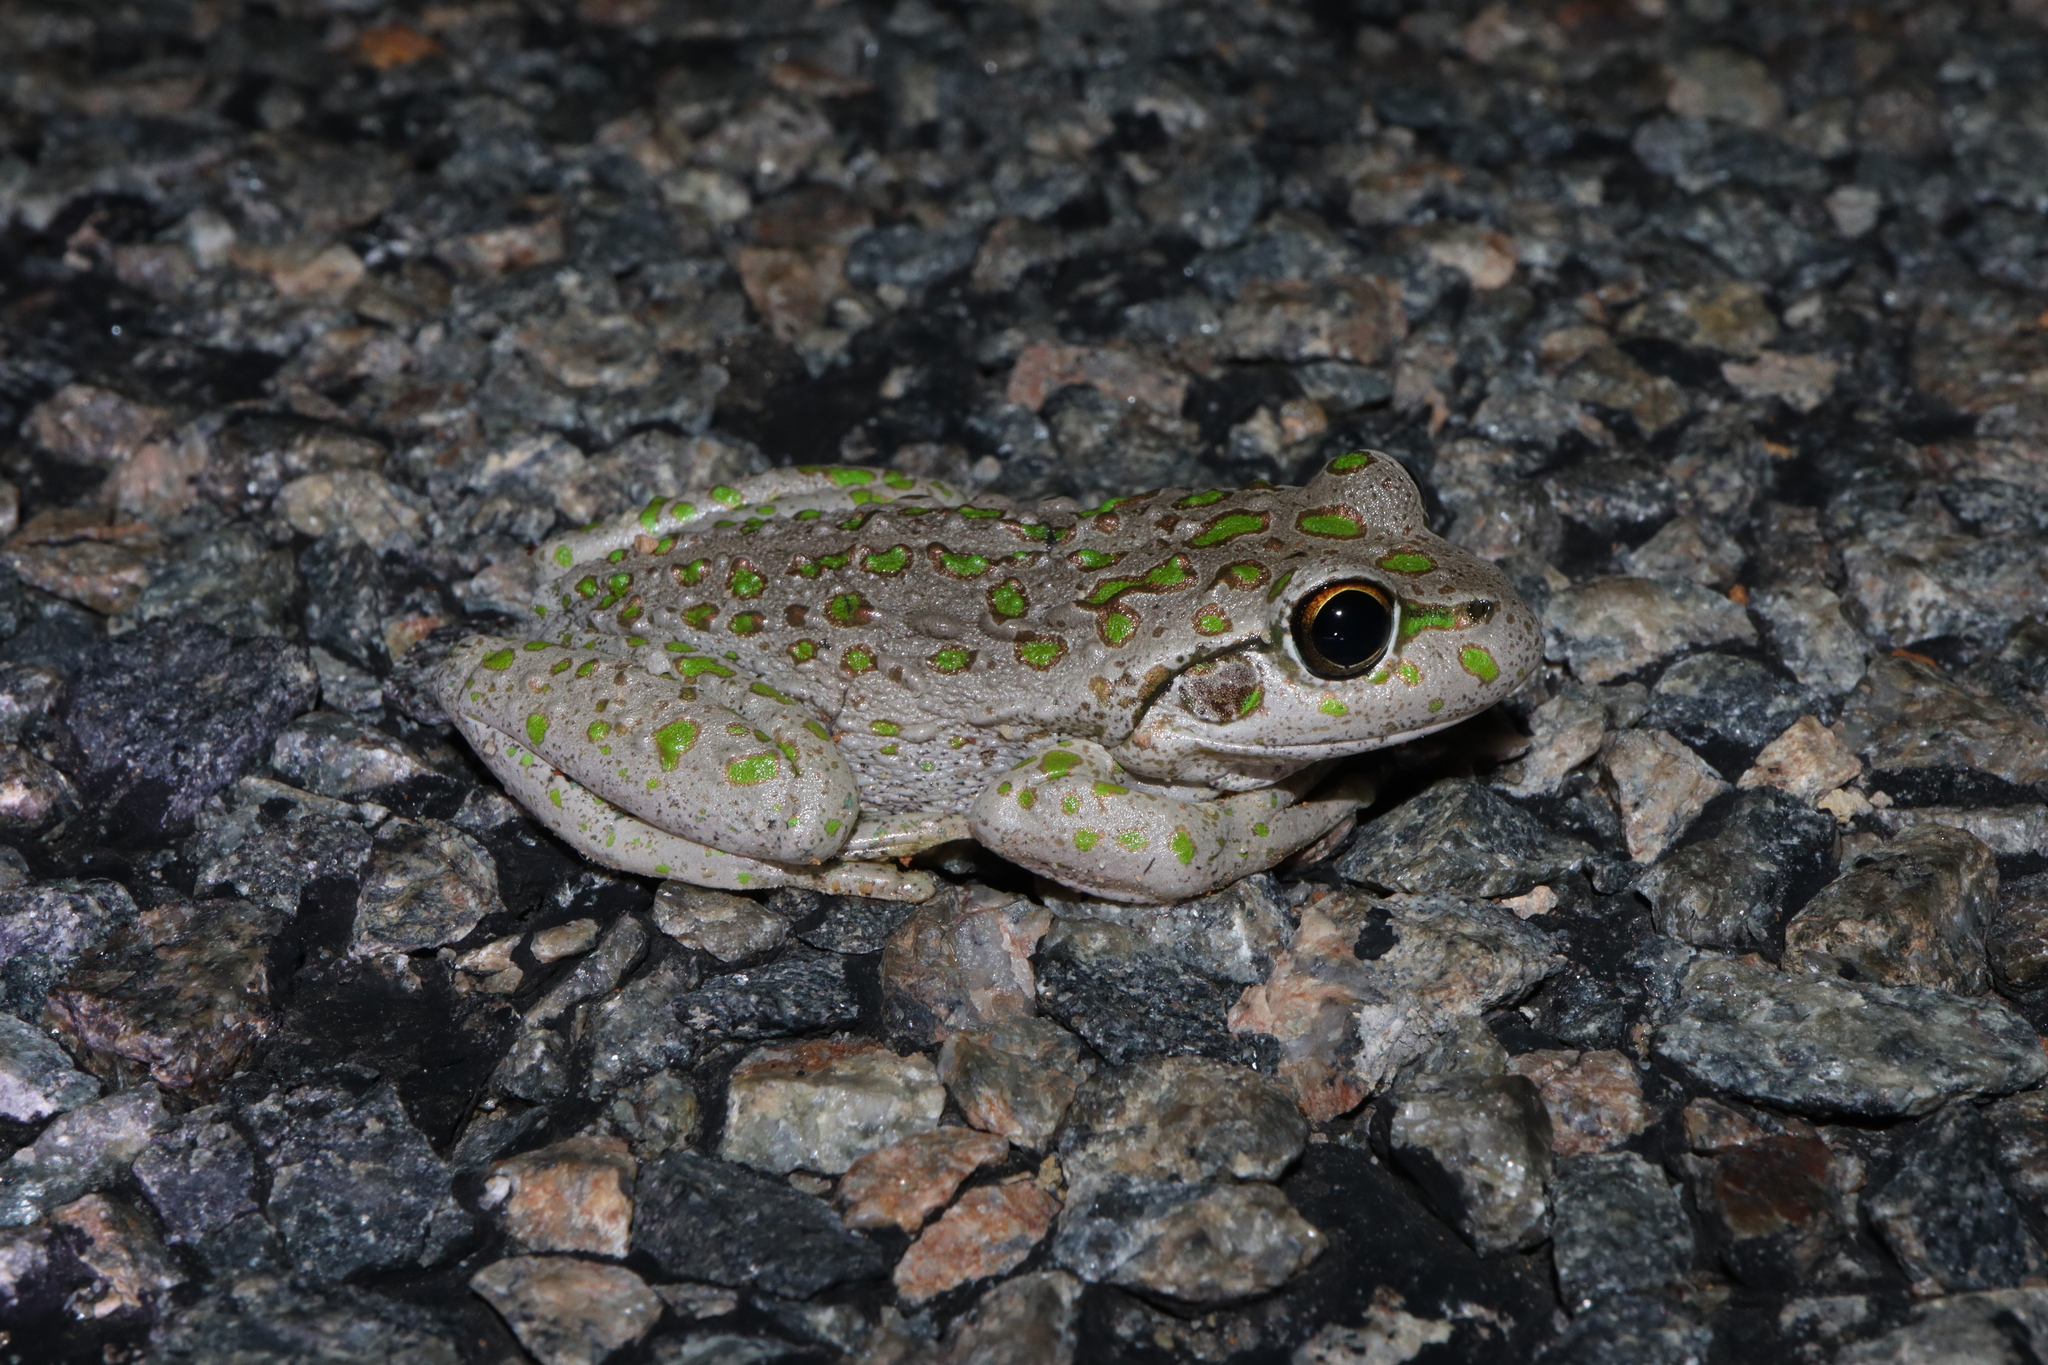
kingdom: Animalia
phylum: Chordata
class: Amphibia
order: Anura
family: Pelodryadidae
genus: Ranoidea
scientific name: Ranoidea cyclorhynchus
